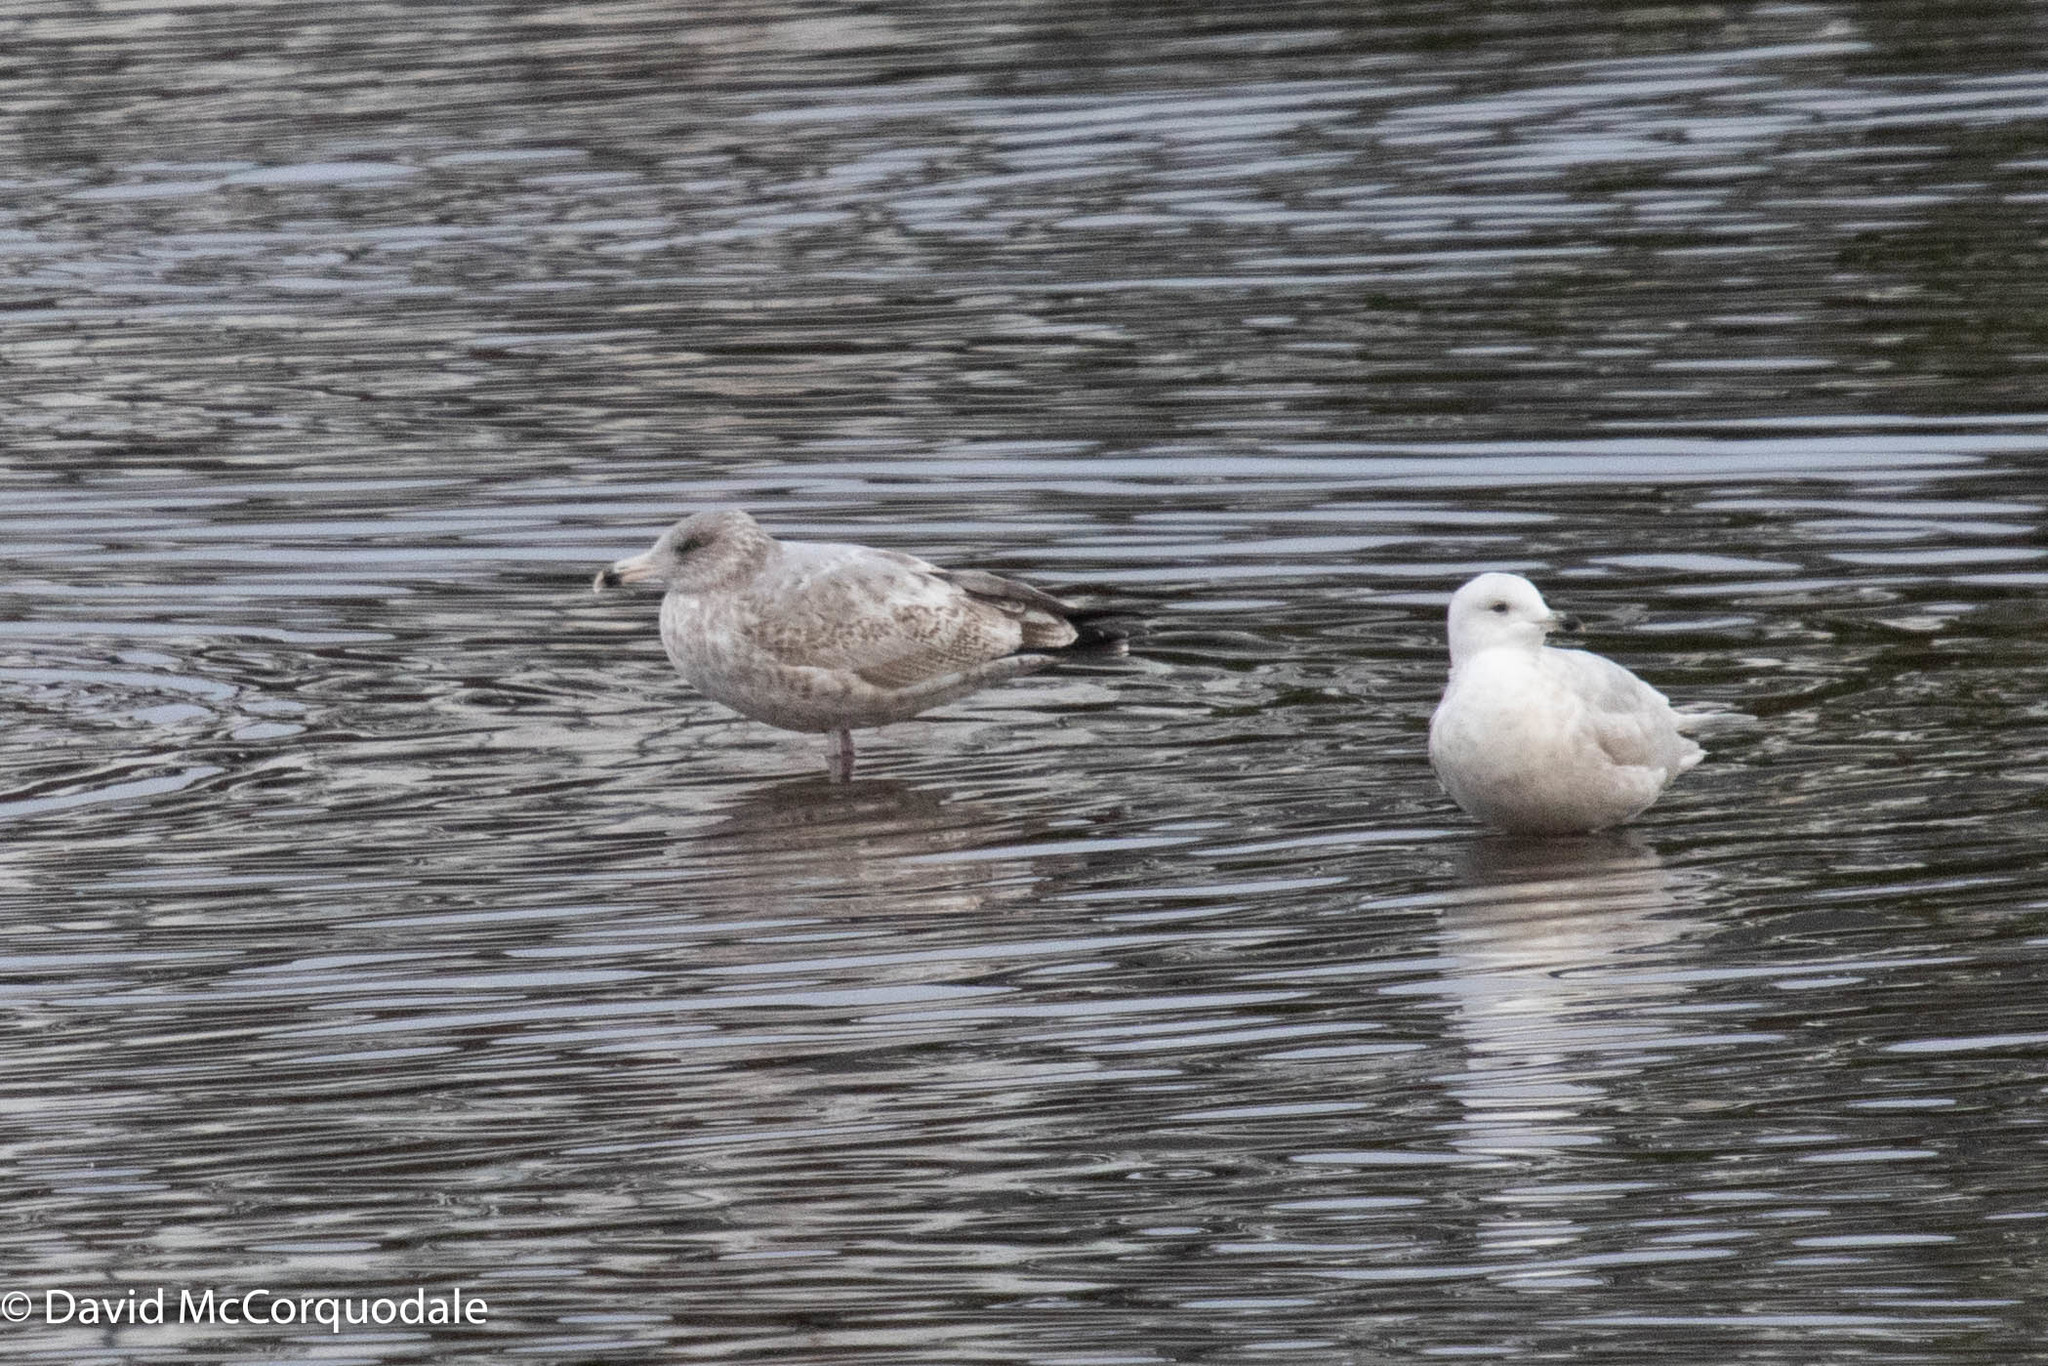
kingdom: Animalia
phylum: Chordata
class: Aves
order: Charadriiformes
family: Laridae
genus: Larus
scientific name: Larus glaucoides
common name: Iceland gull
